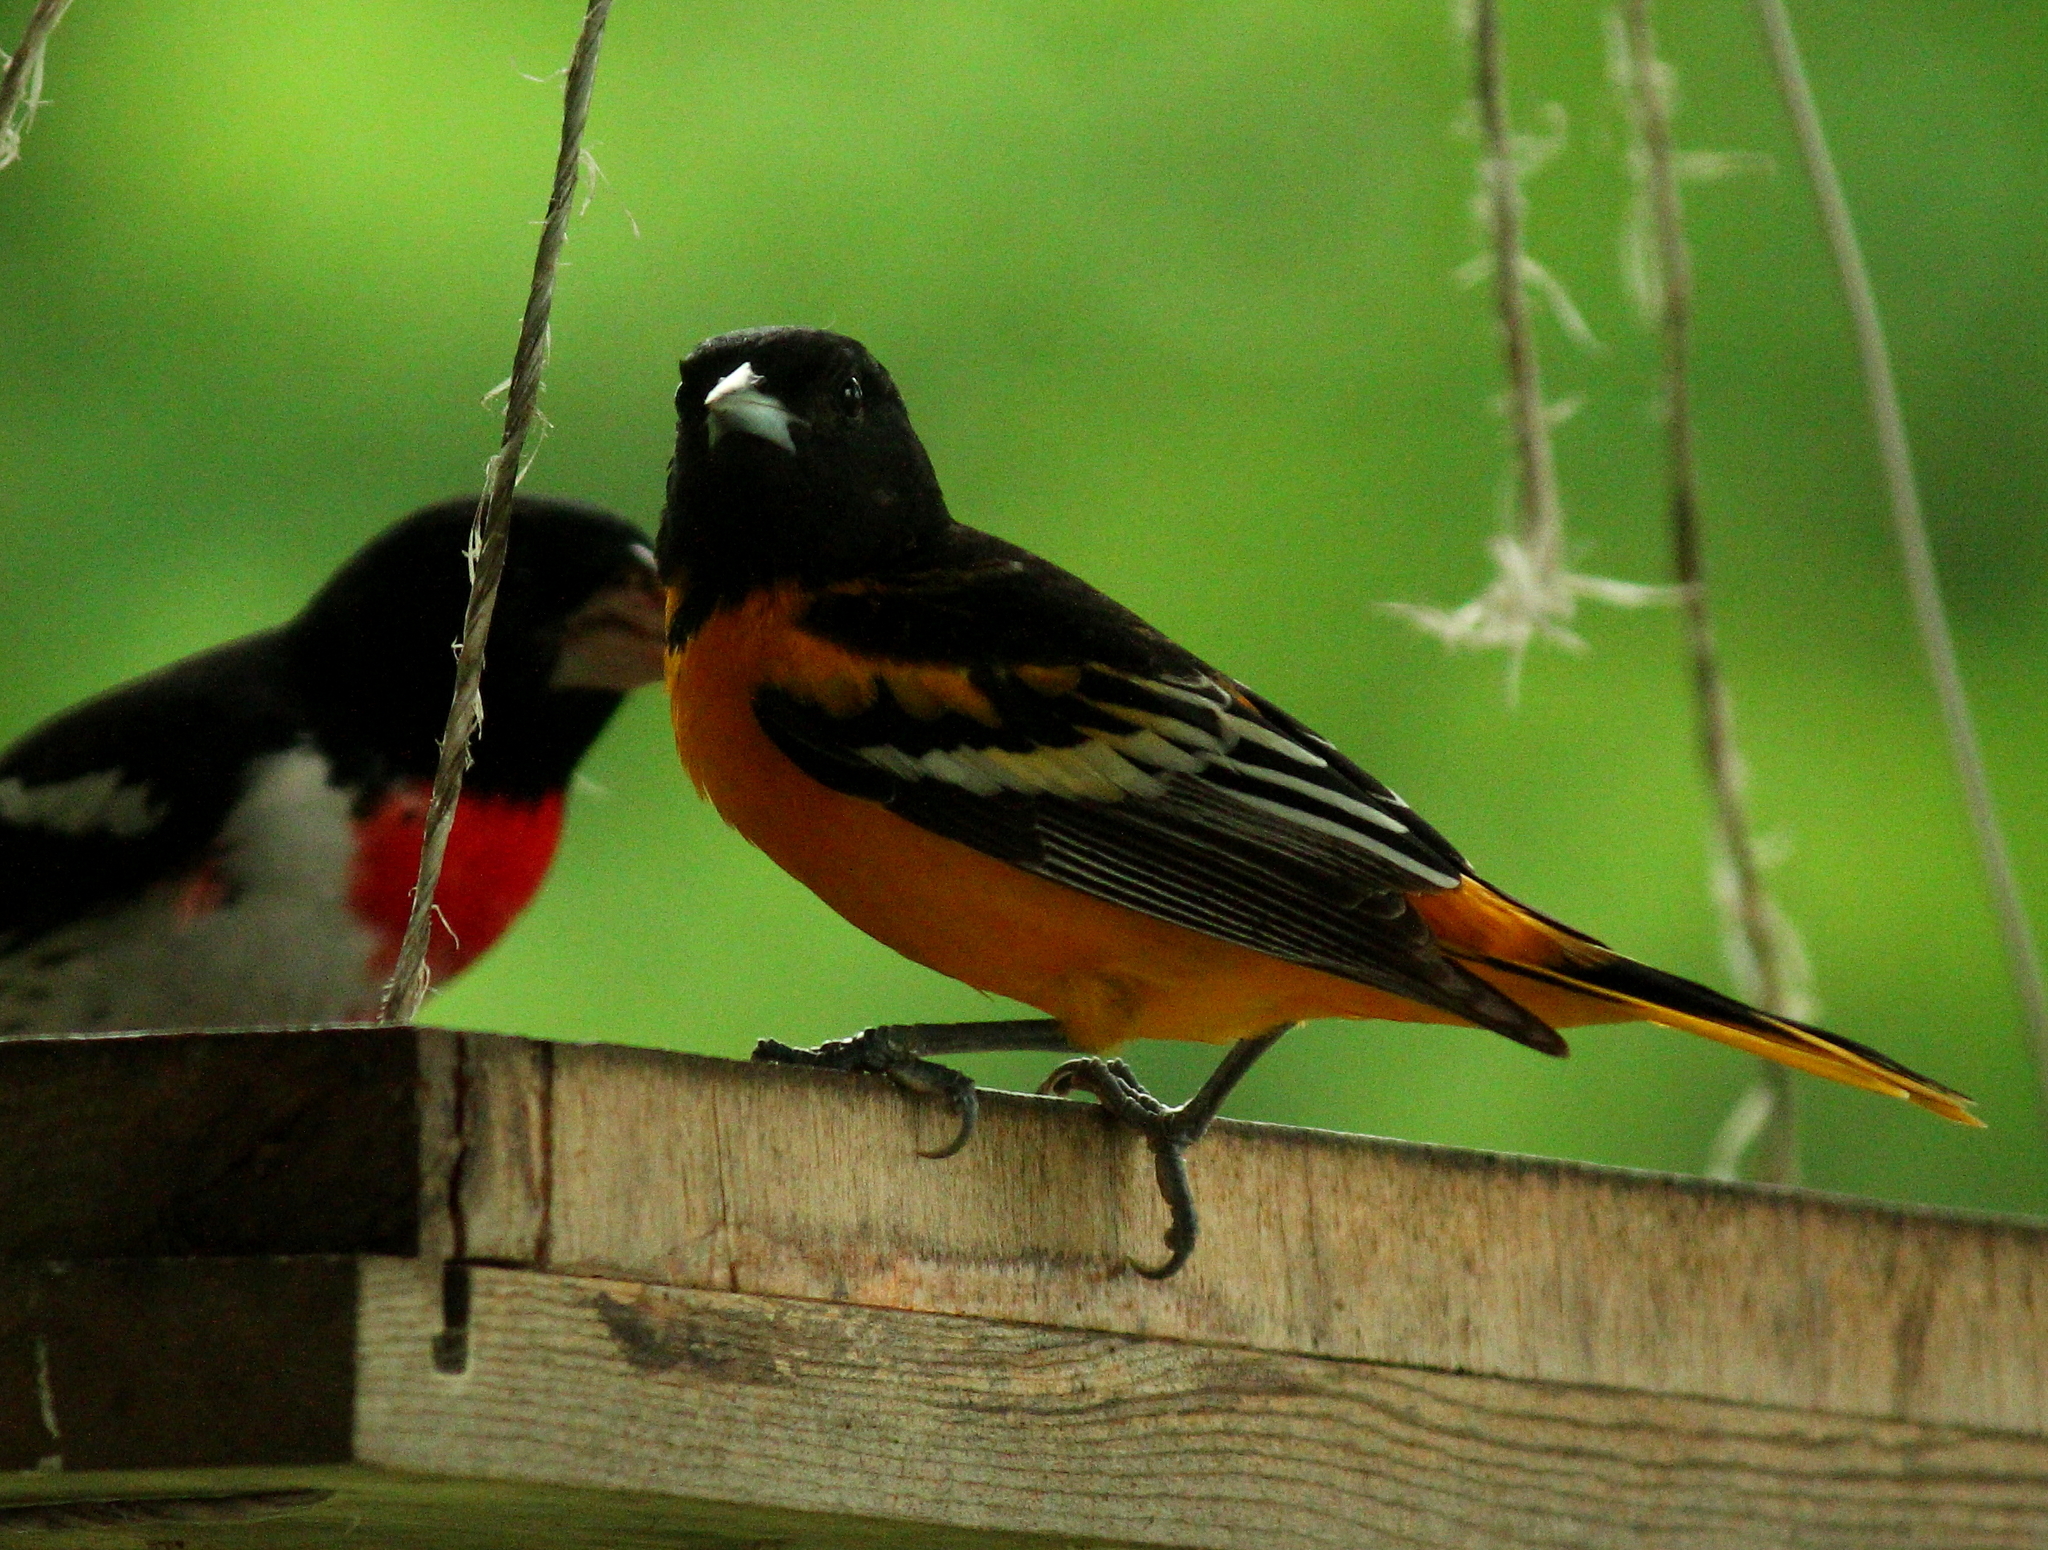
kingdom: Animalia
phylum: Chordata
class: Aves
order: Passeriformes
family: Icteridae
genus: Icterus
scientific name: Icterus galbula
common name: Baltimore oriole
